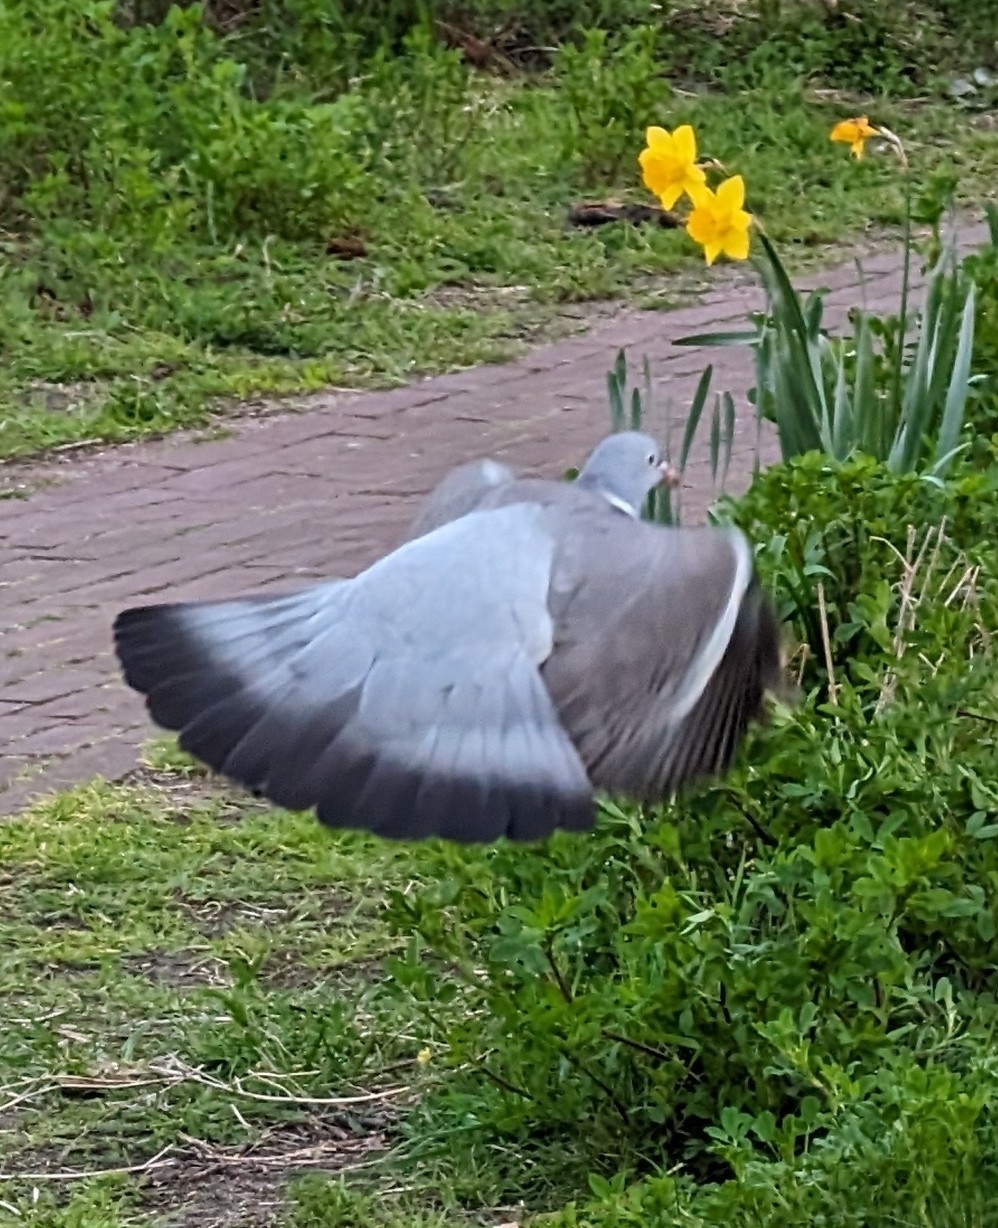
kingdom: Animalia
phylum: Chordata
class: Aves
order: Columbiformes
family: Columbidae
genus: Columba
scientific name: Columba palumbus
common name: Common wood pigeon
